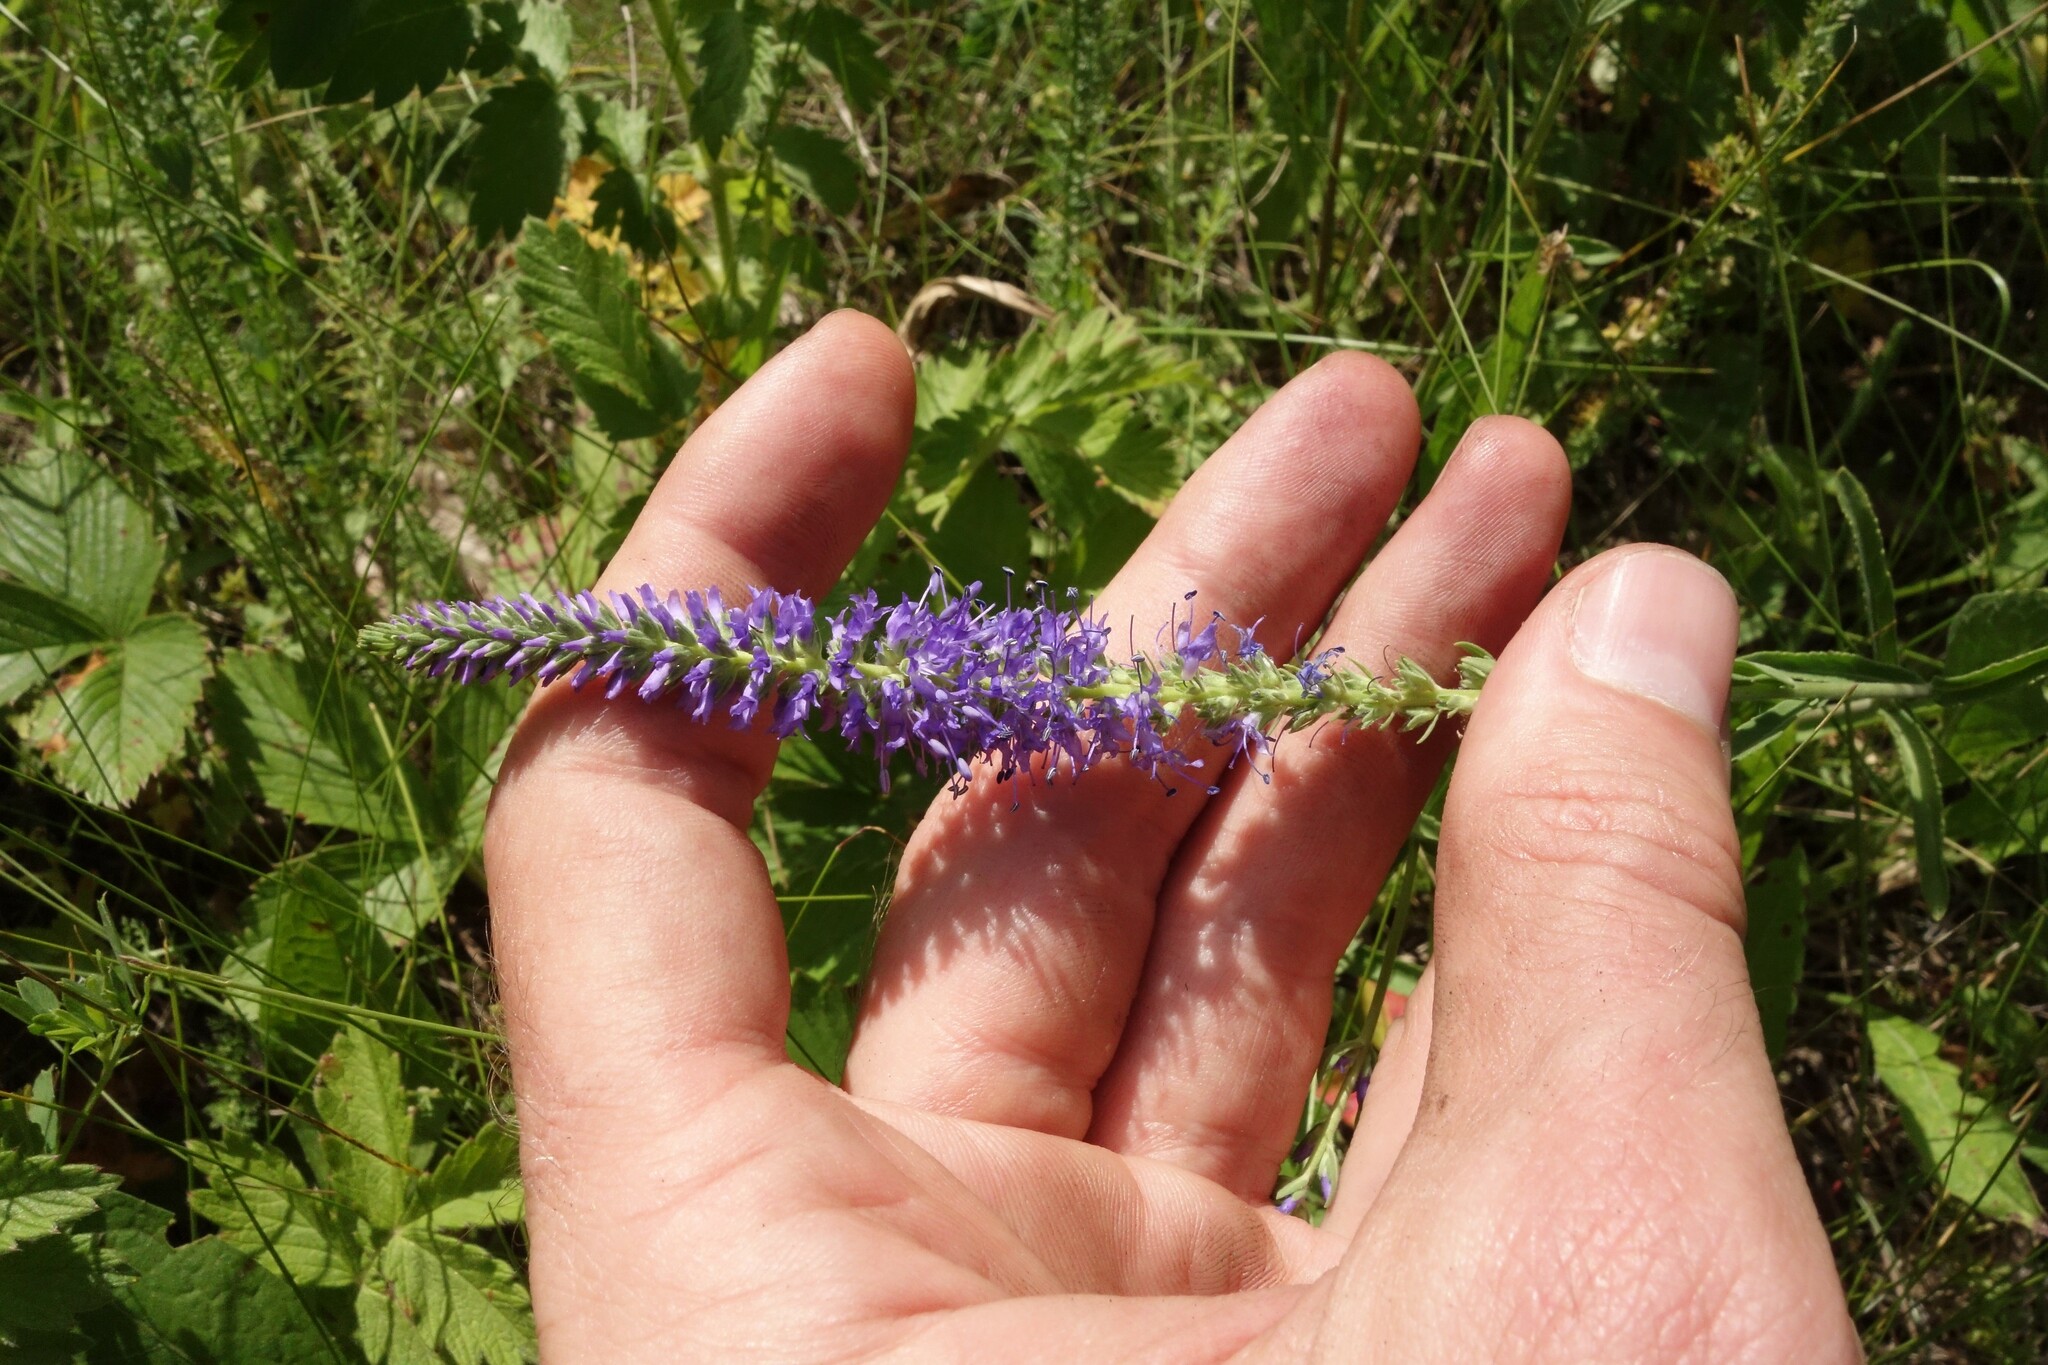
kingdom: Plantae
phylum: Tracheophyta
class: Magnoliopsida
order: Lamiales
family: Plantaginaceae
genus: Veronica
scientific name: Veronica spicata
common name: Spiked speedwell
